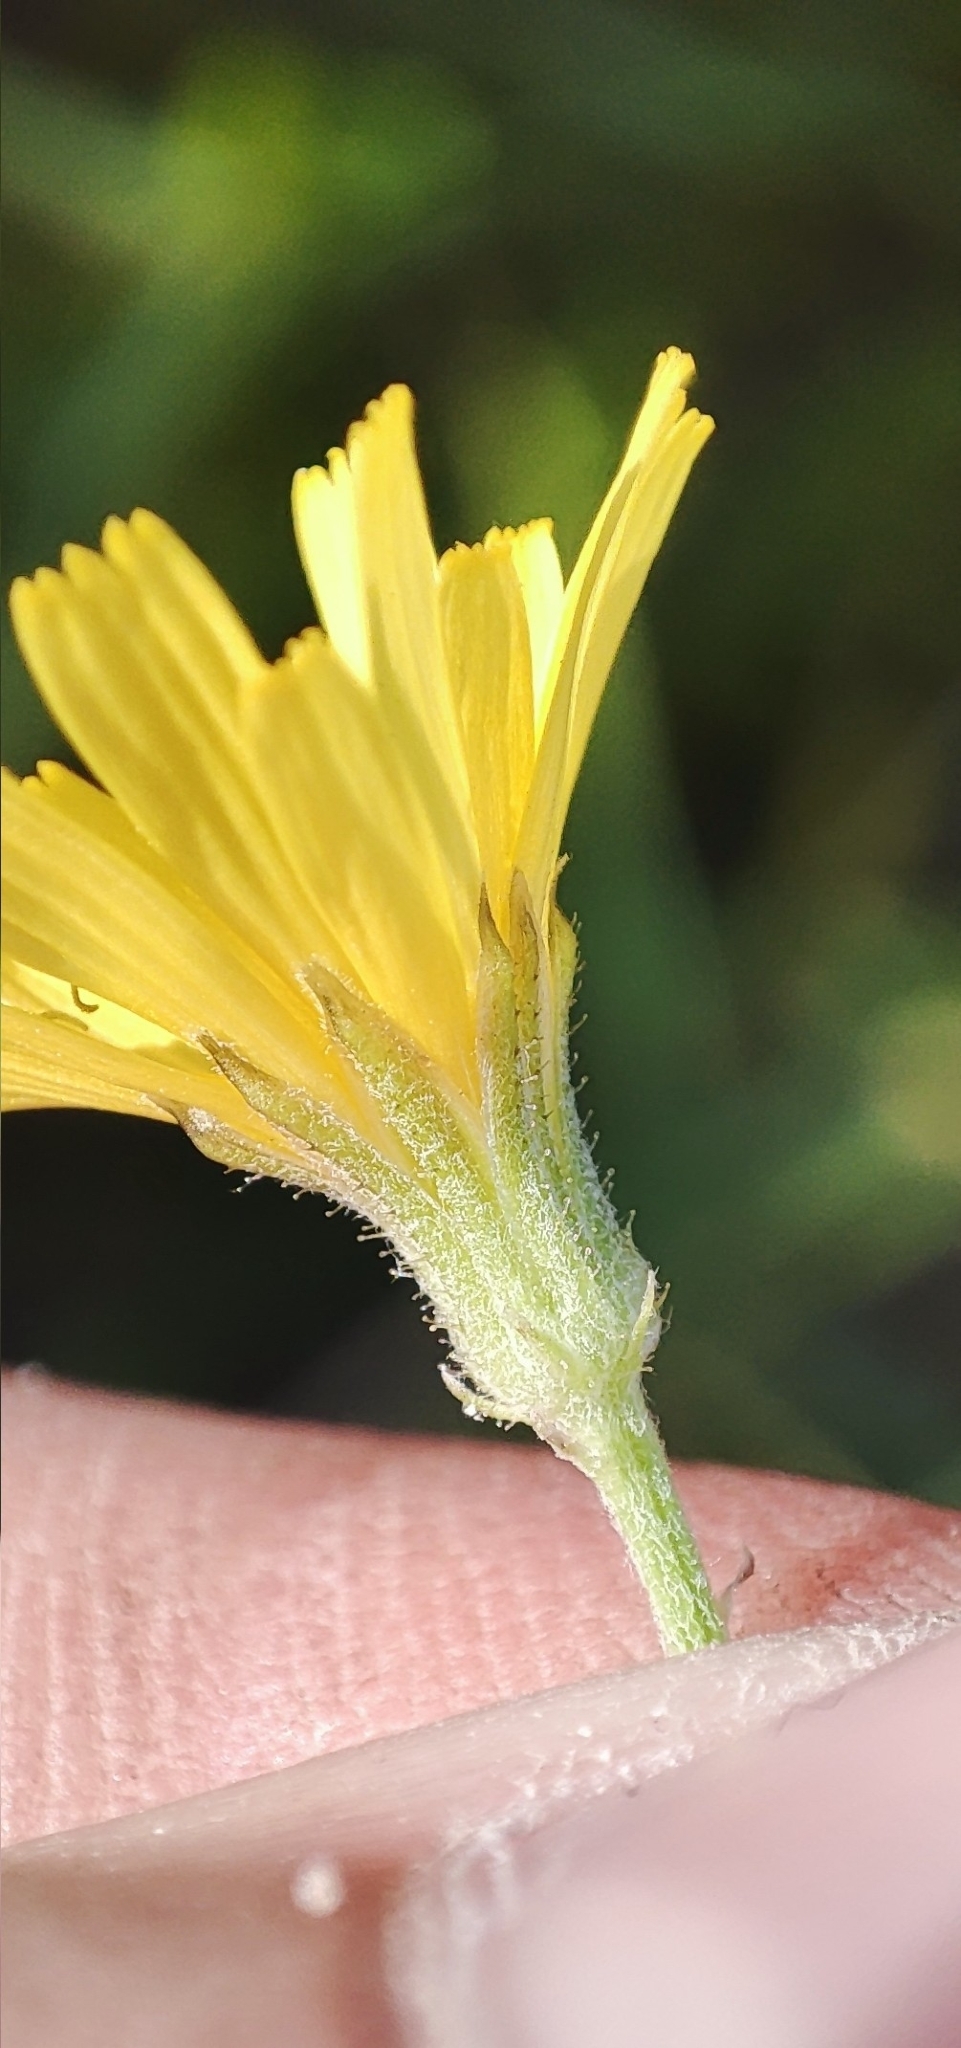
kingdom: Plantae
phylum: Tracheophyta
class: Magnoliopsida
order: Asterales
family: Asteraceae
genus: Crepis
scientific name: Crepis tectorum
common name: Narrow-leaved hawk's-beard
